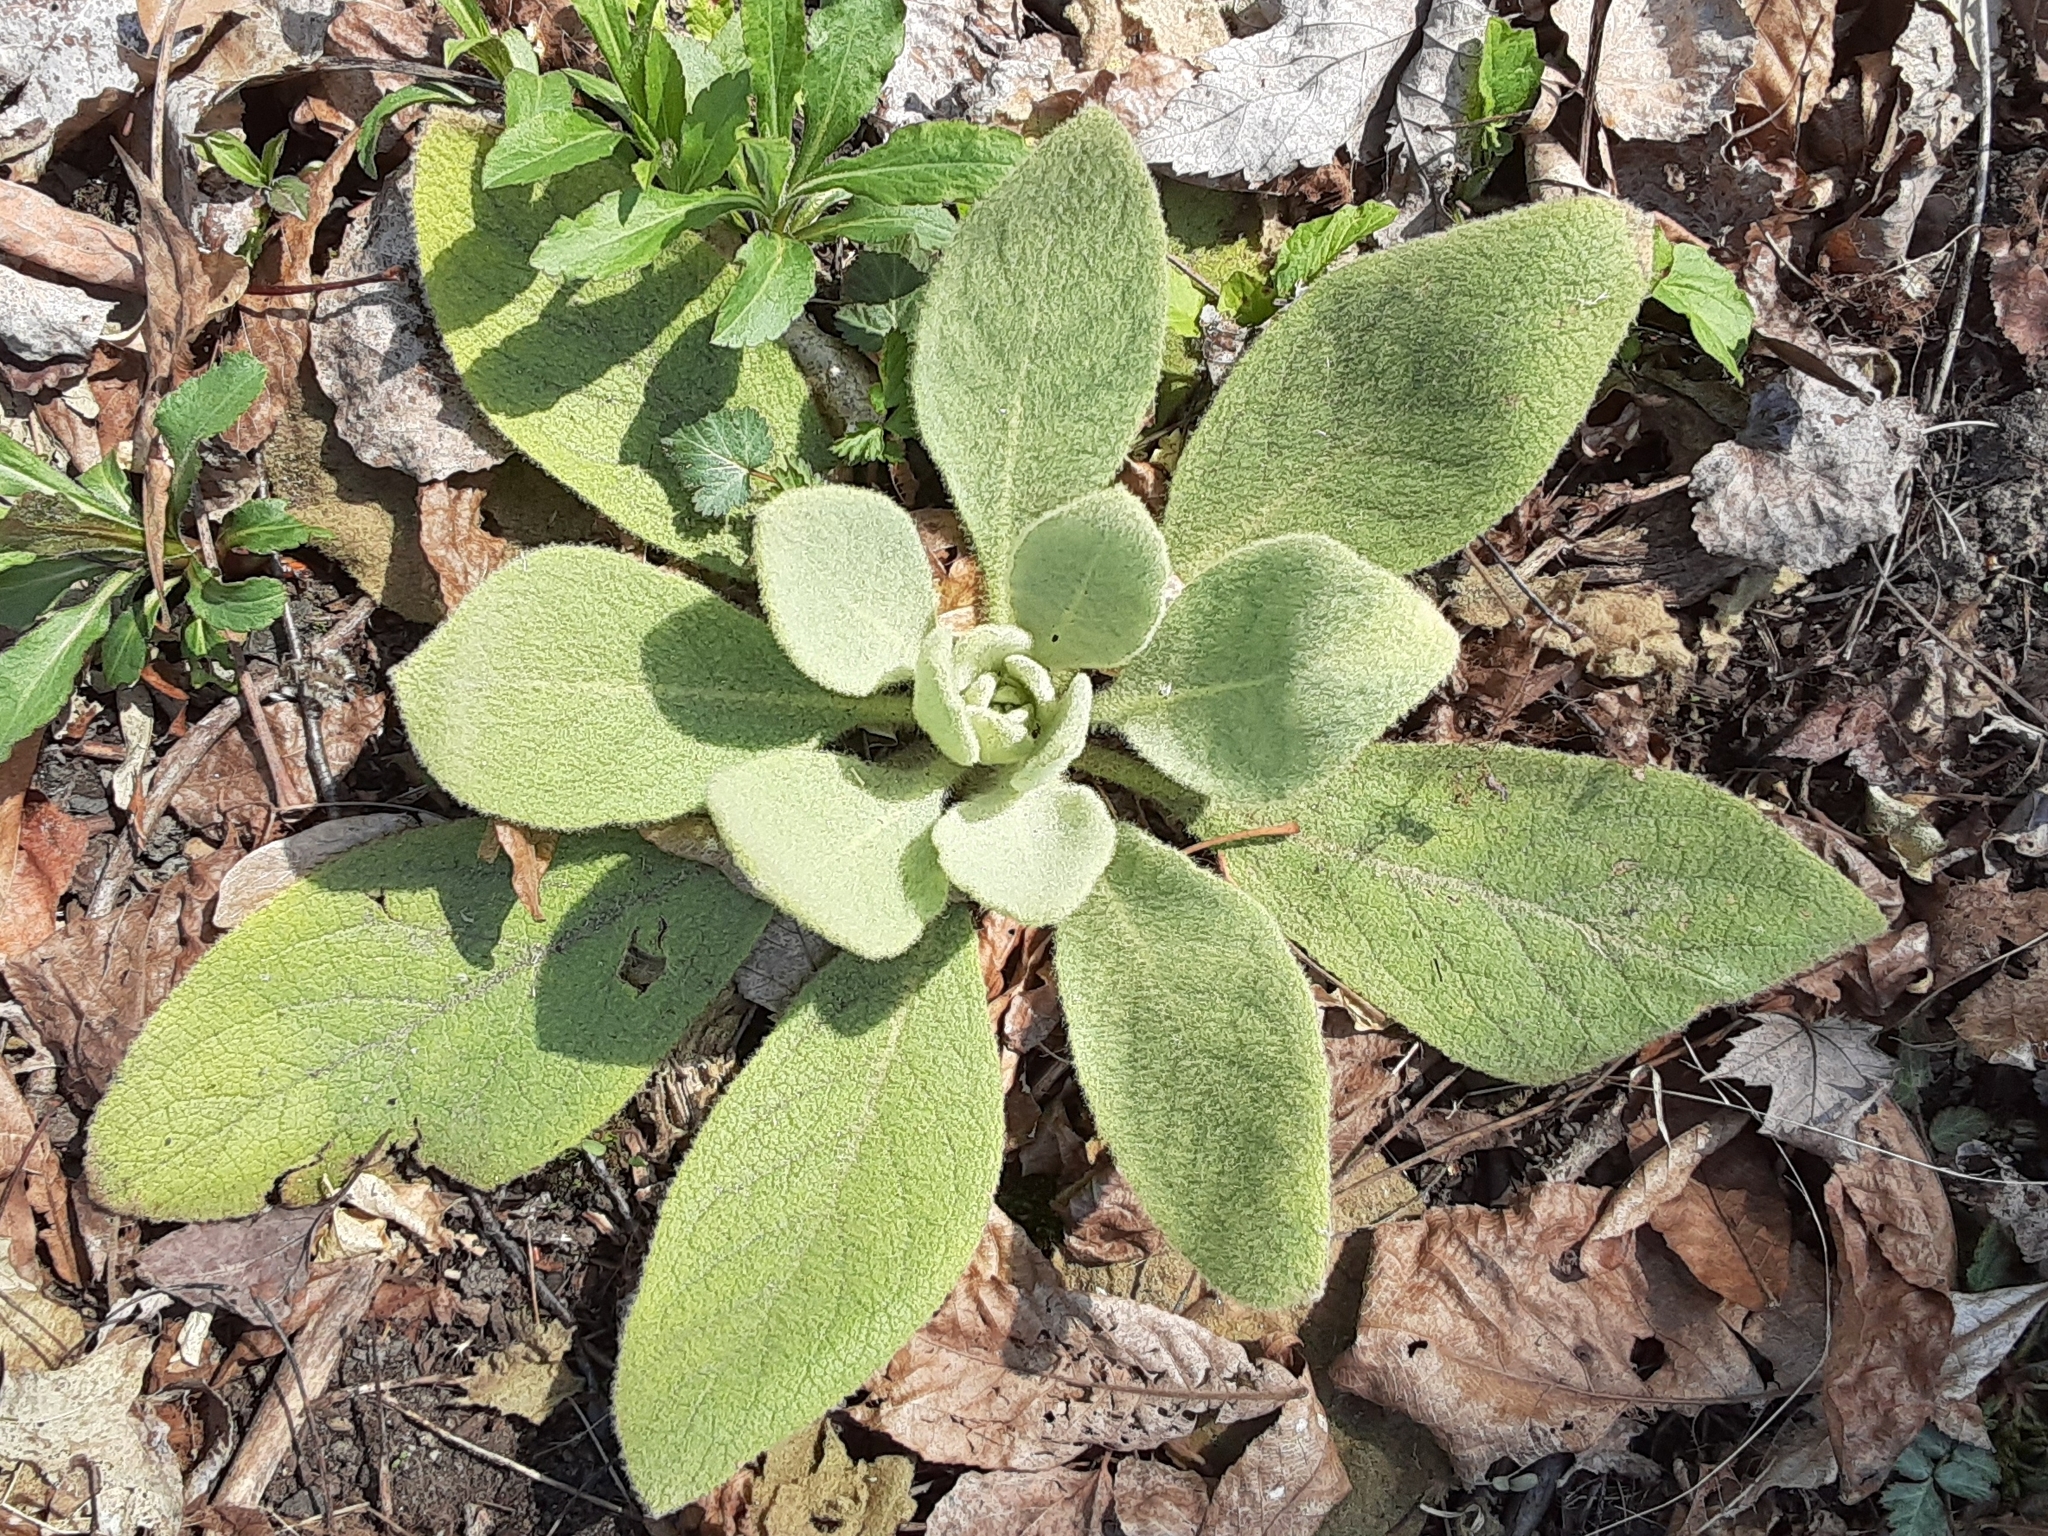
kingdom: Plantae
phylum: Tracheophyta
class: Magnoliopsida
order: Lamiales
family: Scrophulariaceae
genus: Verbascum
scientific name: Verbascum thapsus
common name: Common mullein
